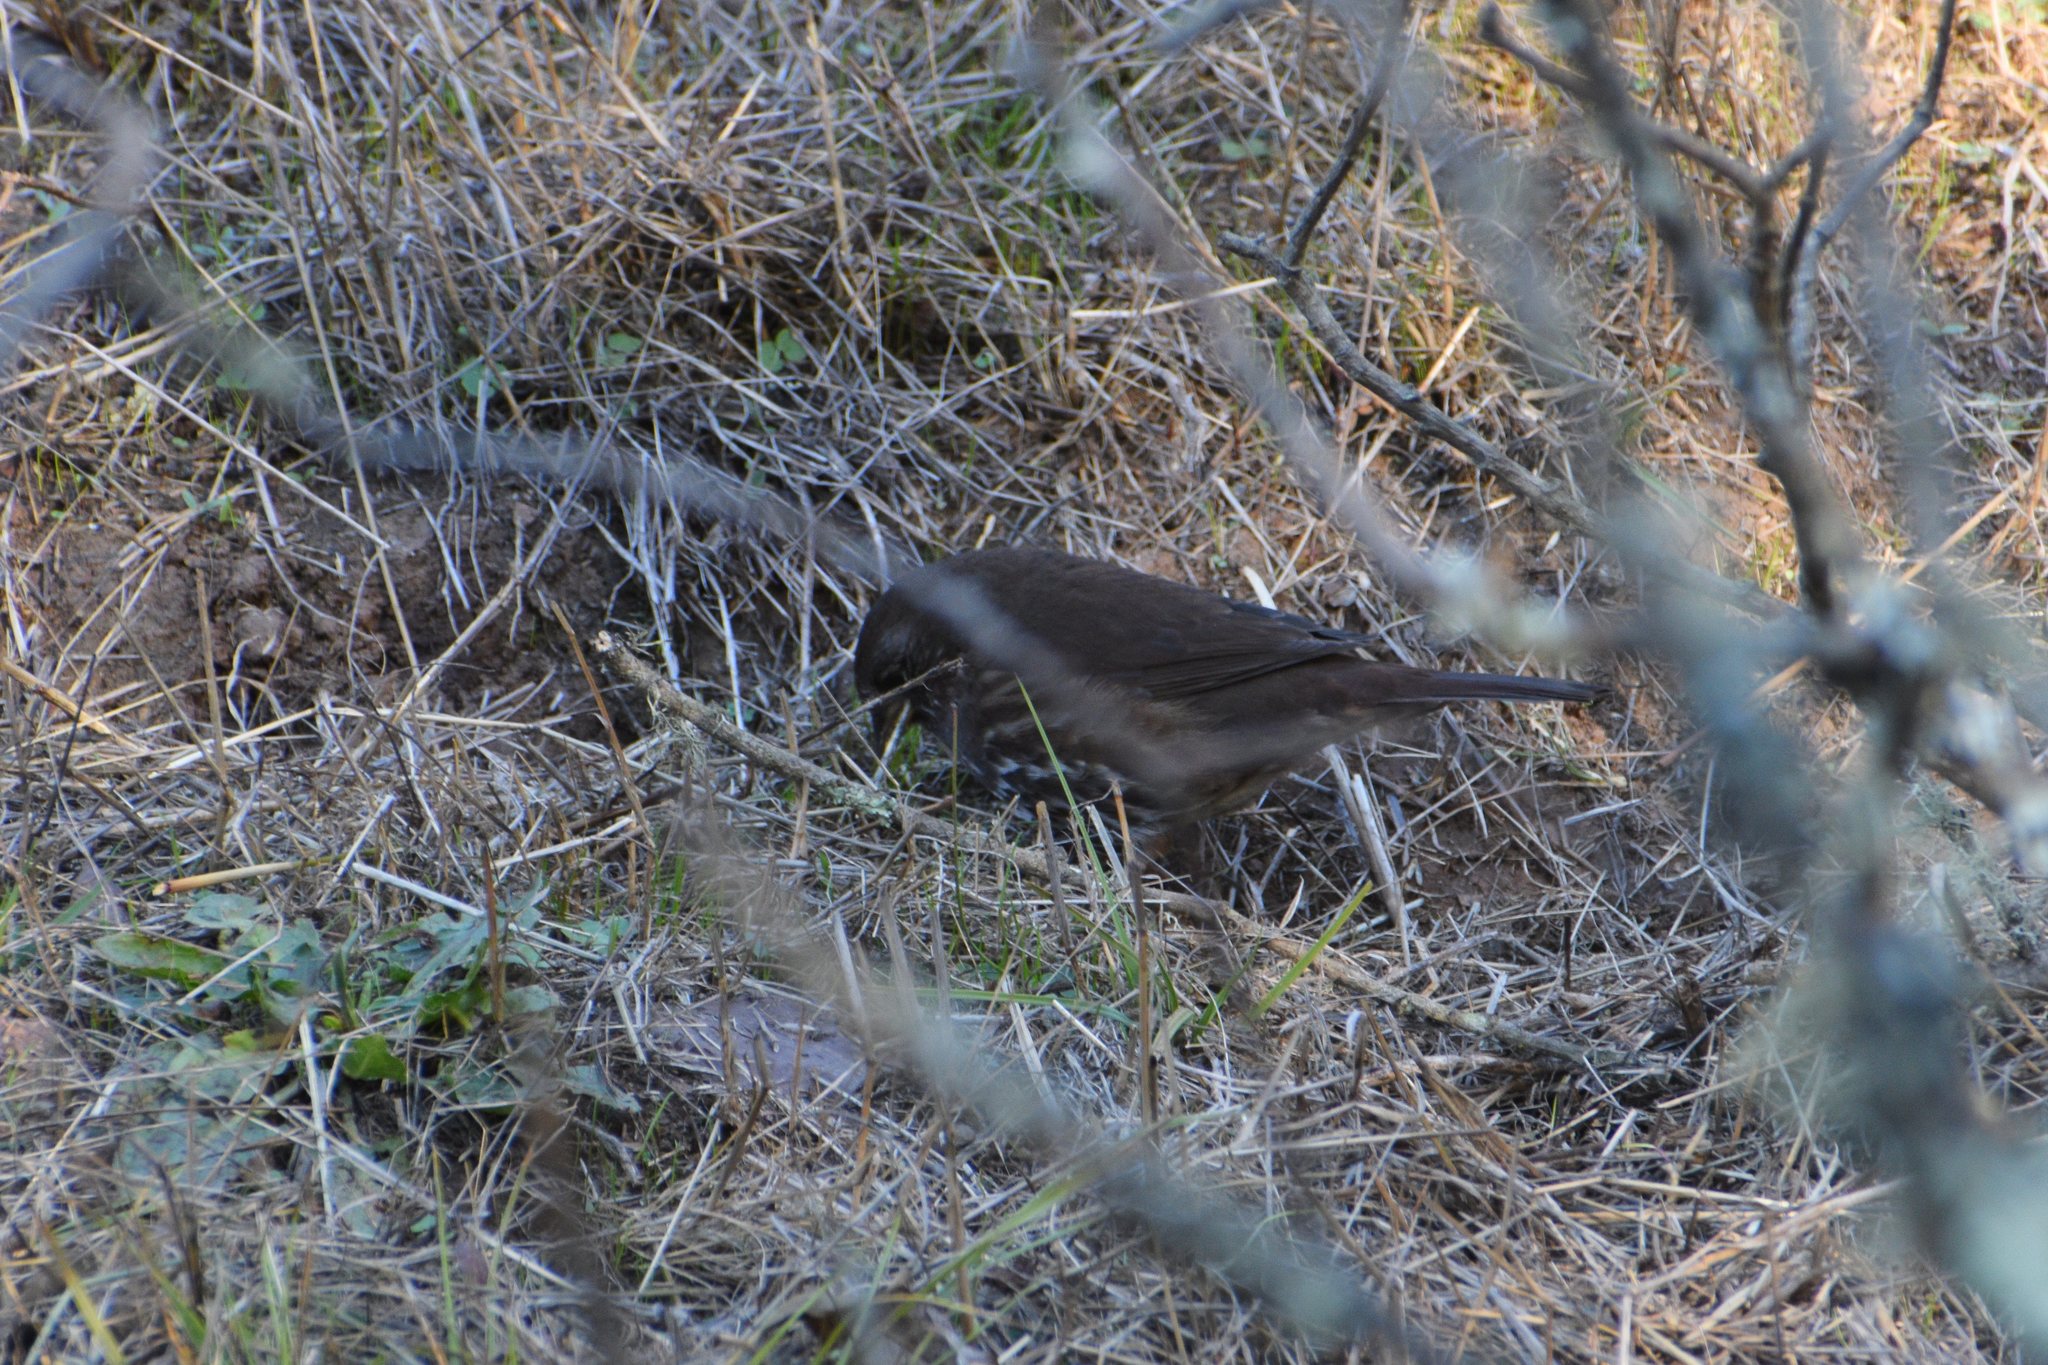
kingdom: Animalia
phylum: Chordata
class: Aves
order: Passeriformes
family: Passerellidae
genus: Passerella
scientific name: Passerella iliaca
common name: Fox sparrow
